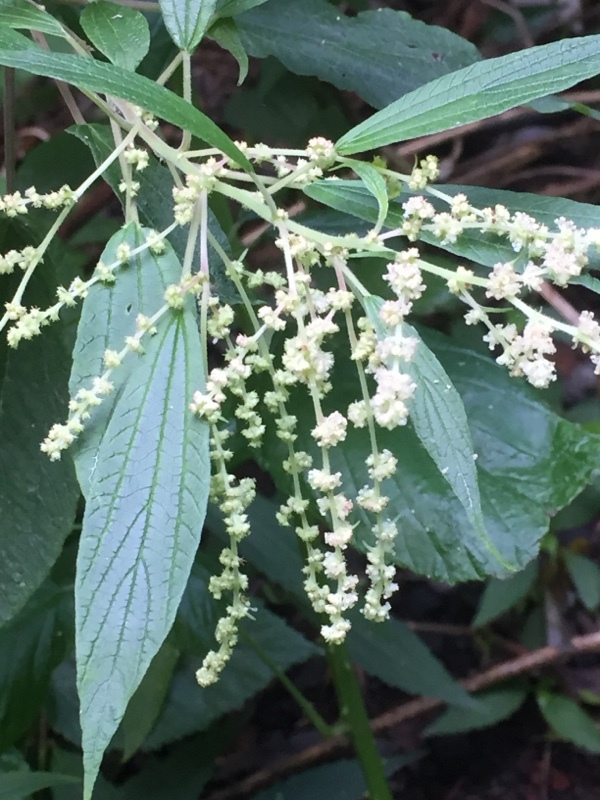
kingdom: Plantae
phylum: Tracheophyta
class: Magnoliopsida
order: Rosales
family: Urticaceae
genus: Gesnouinia
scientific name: Gesnouinia arborea
